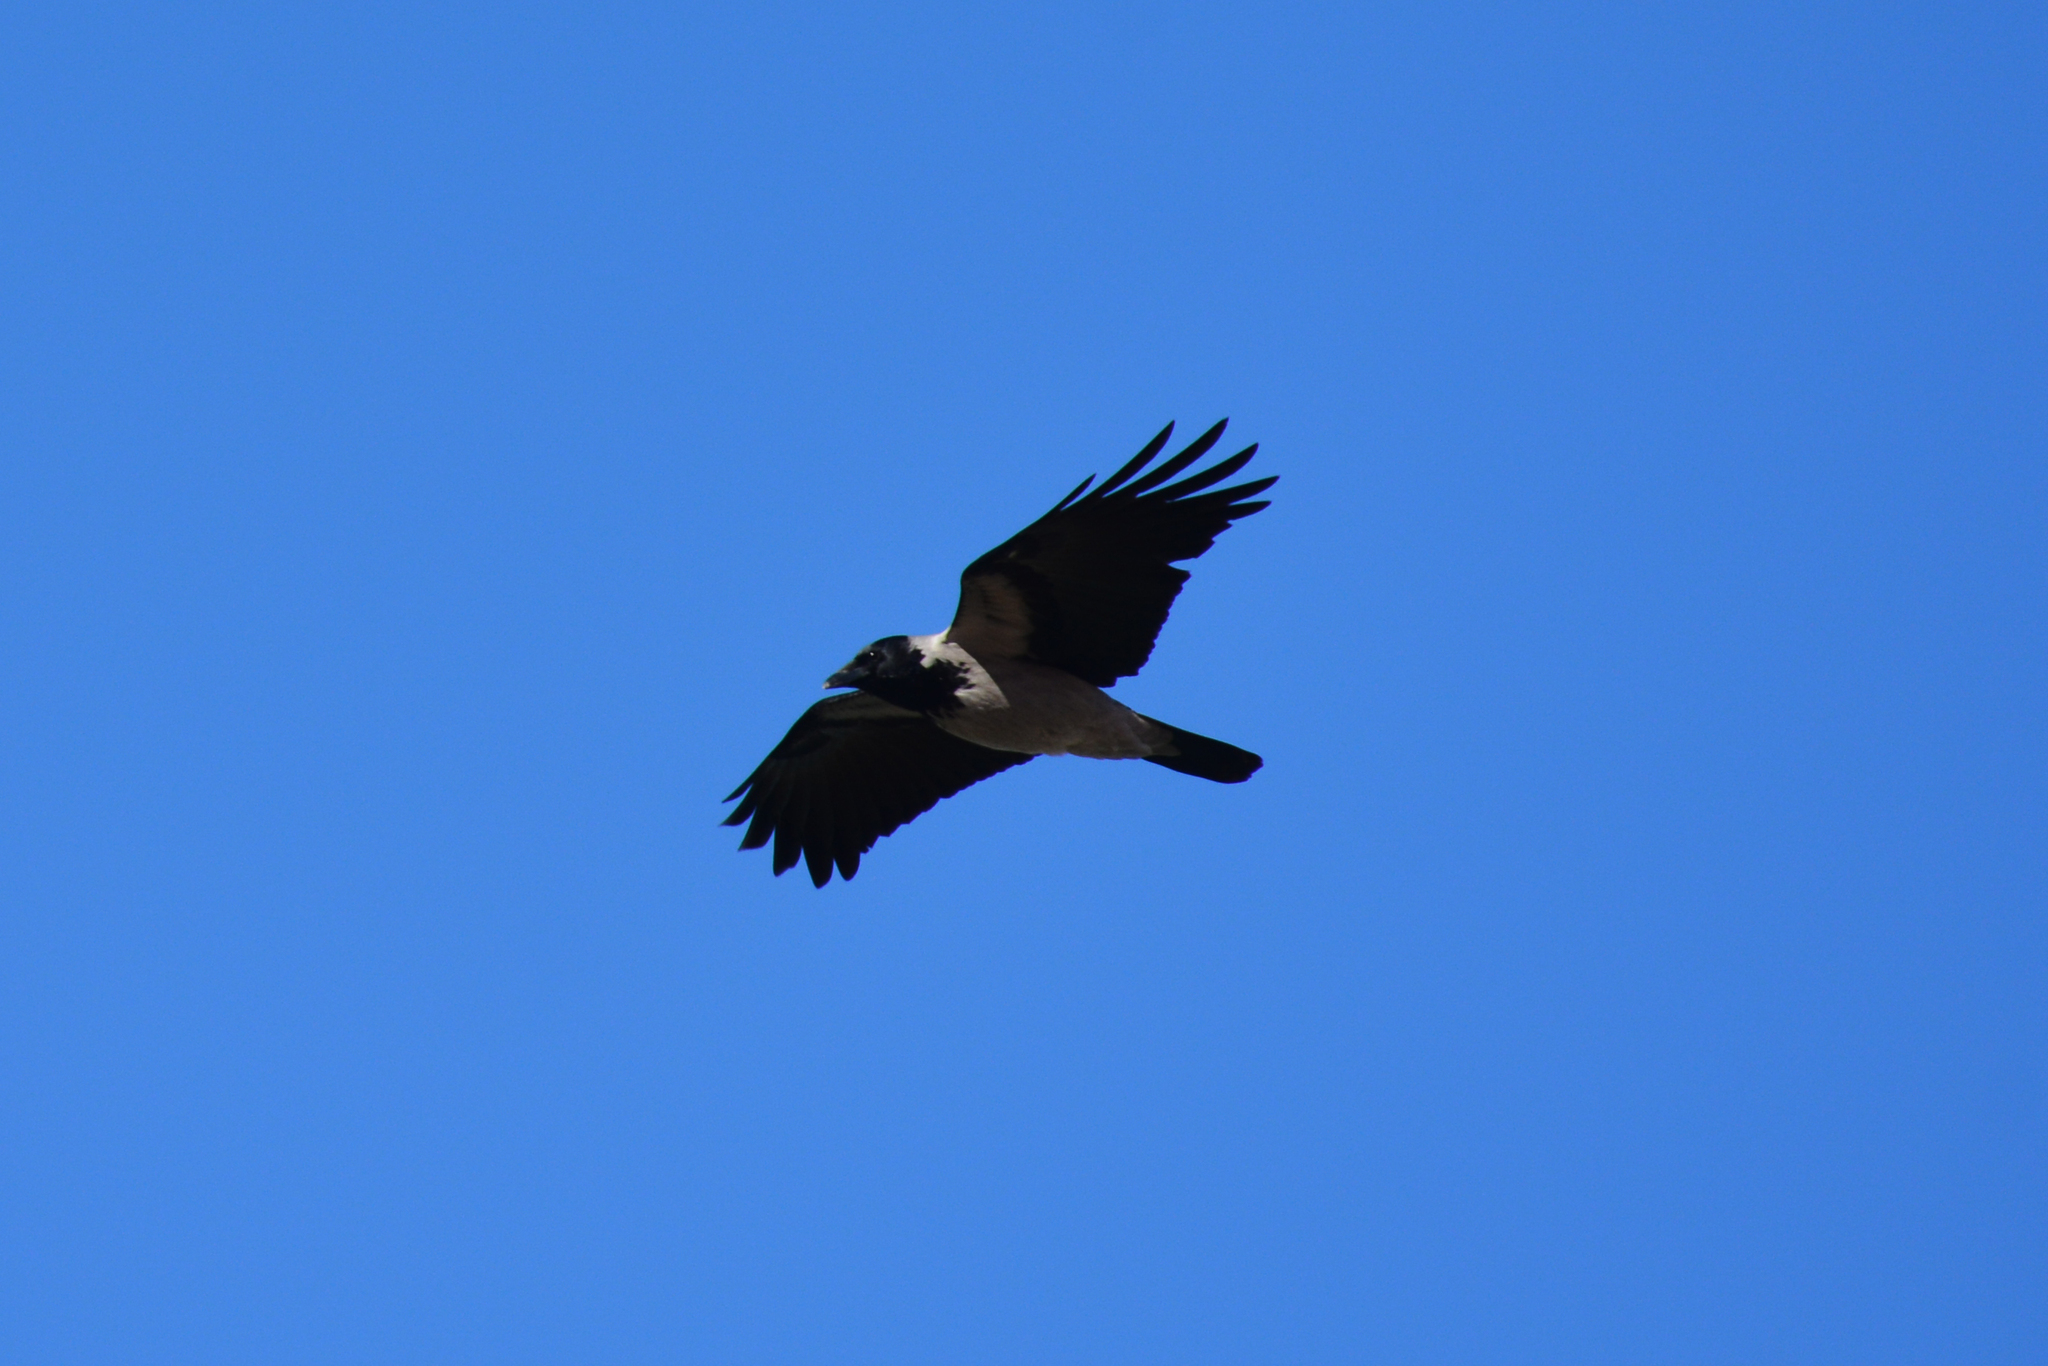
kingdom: Animalia
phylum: Chordata
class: Aves
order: Passeriformes
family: Corvidae
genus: Corvus
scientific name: Corvus cornix
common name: Hooded crow
